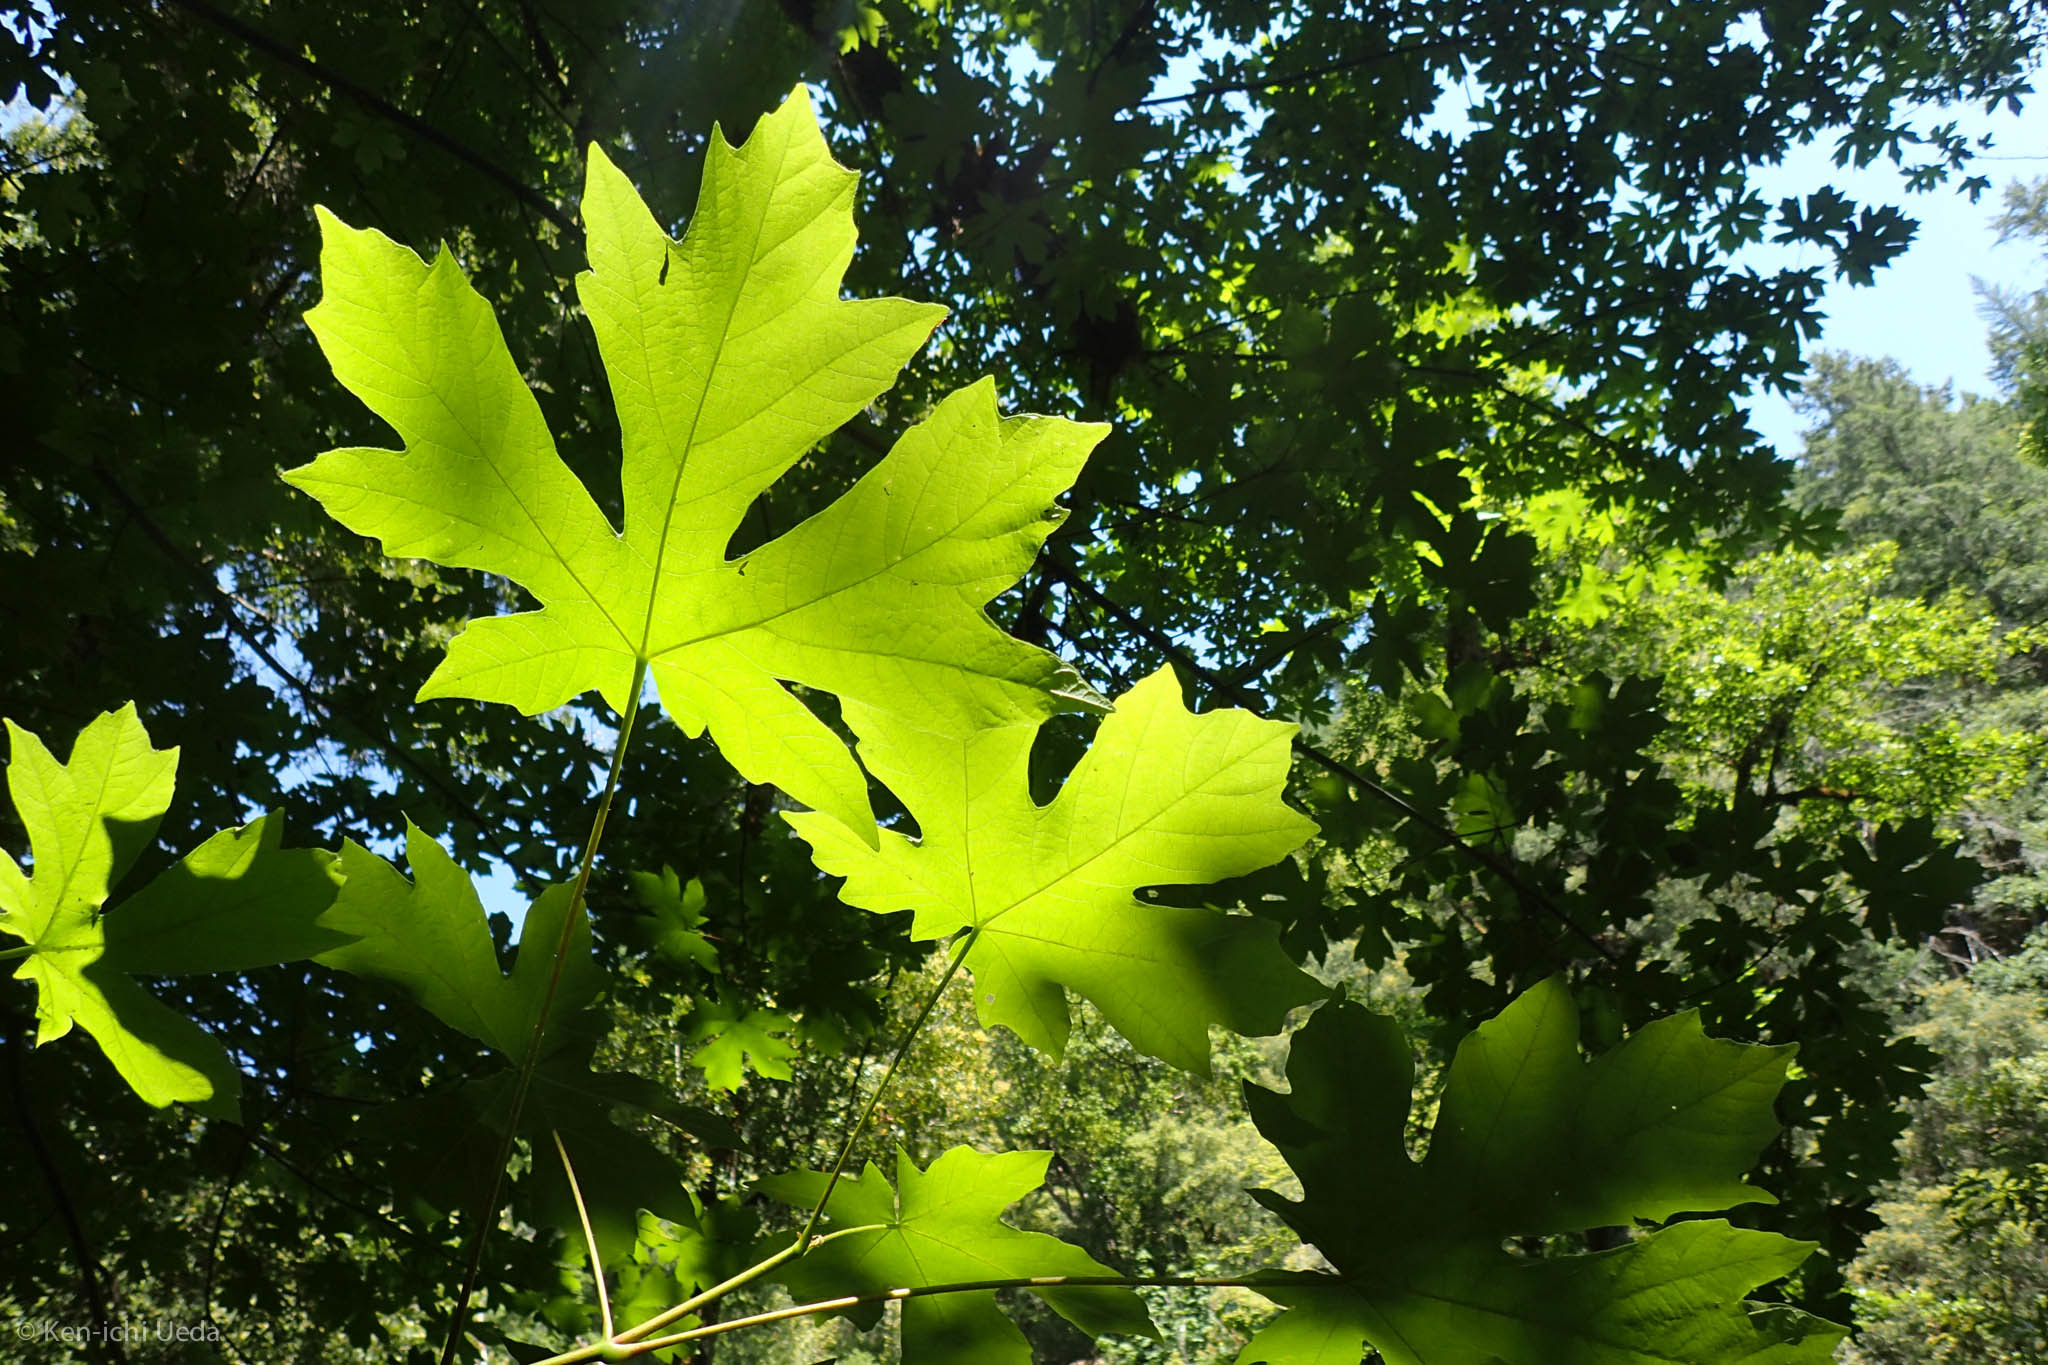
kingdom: Plantae
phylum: Tracheophyta
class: Magnoliopsida
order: Sapindales
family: Sapindaceae
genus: Acer
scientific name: Acer macrophyllum
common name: Oregon maple
